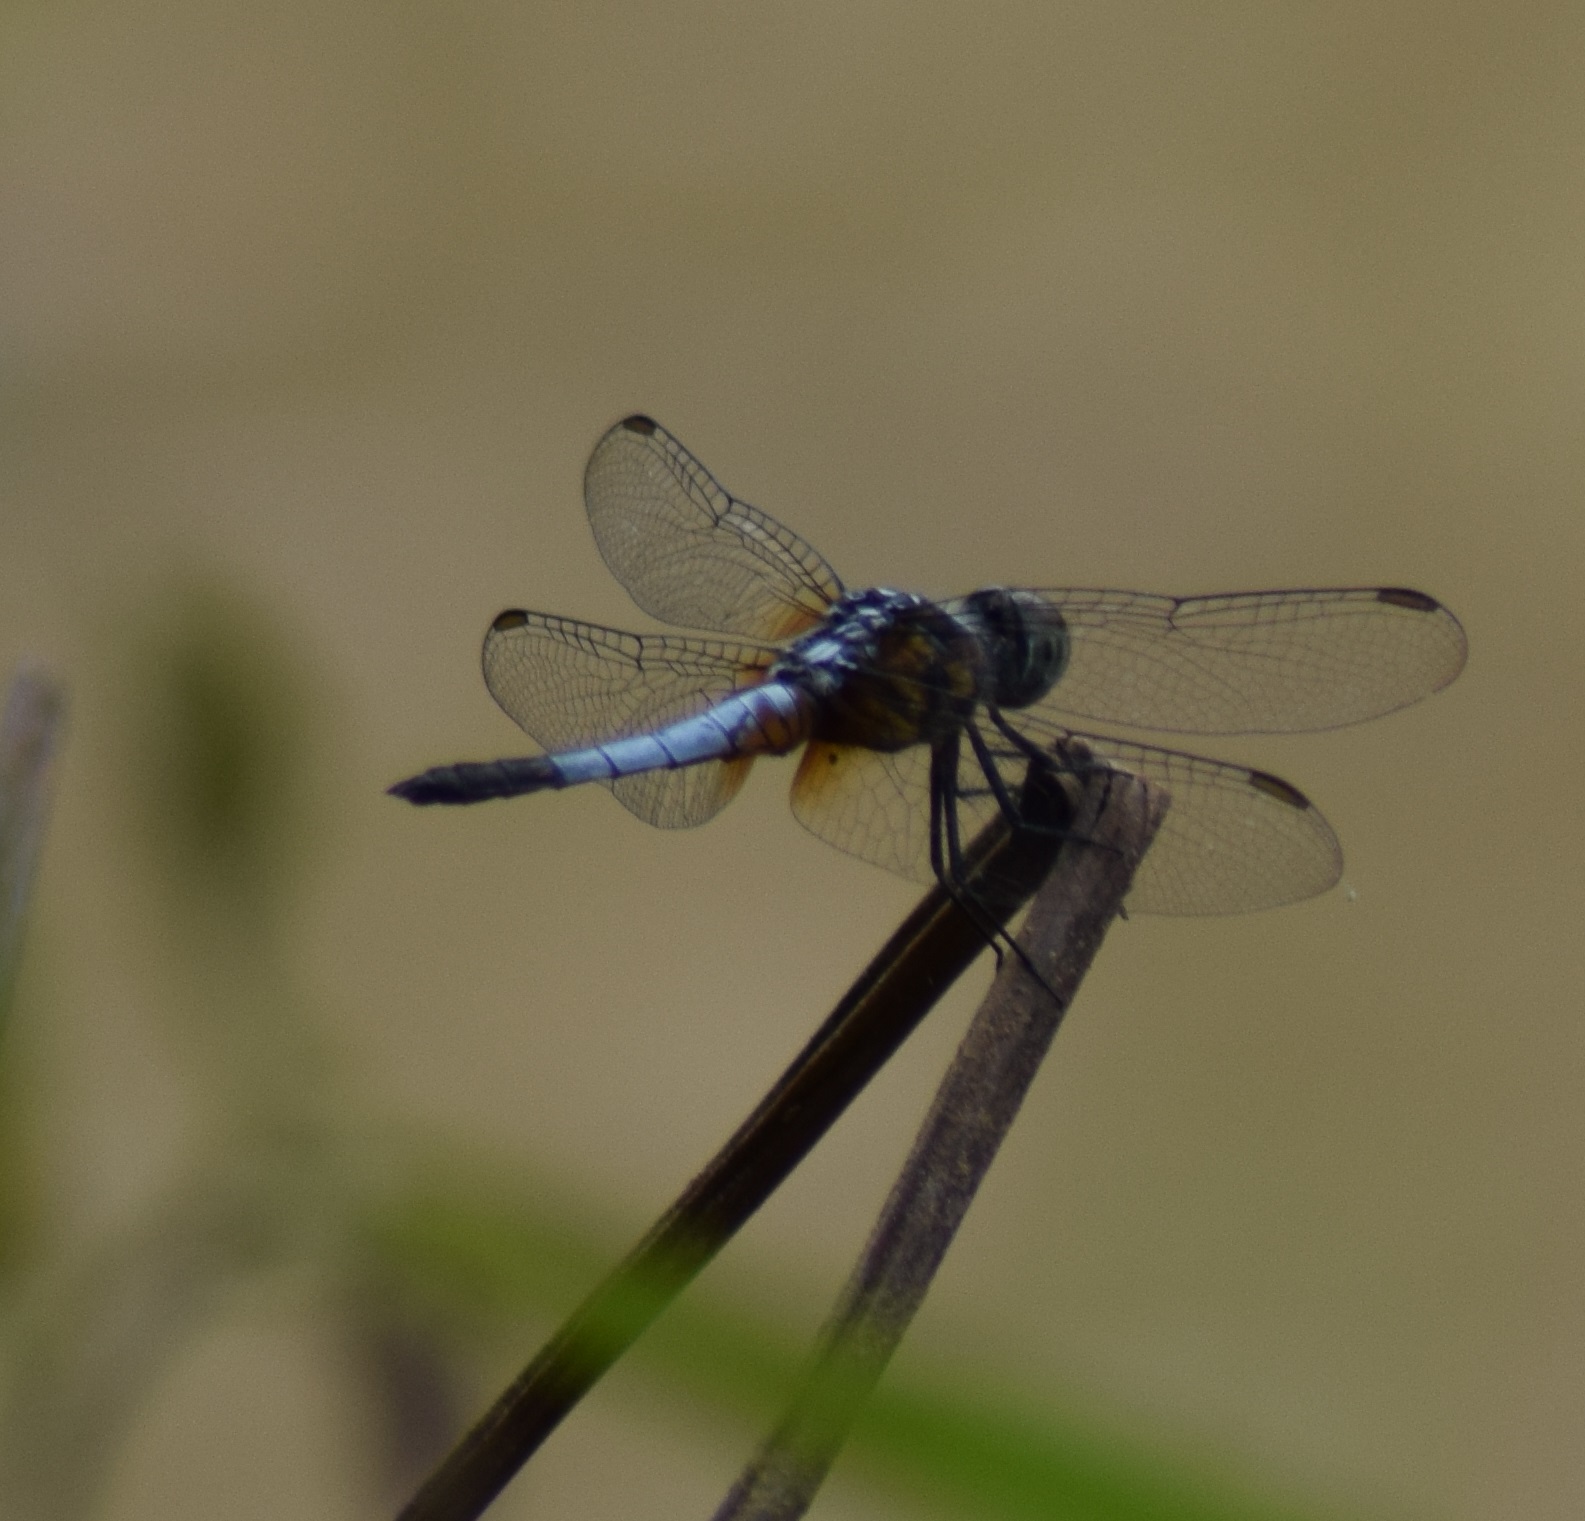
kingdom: Animalia
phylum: Arthropoda
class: Insecta
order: Odonata
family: Libellulidae
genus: Brachydiplax
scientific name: Brachydiplax chalybea
